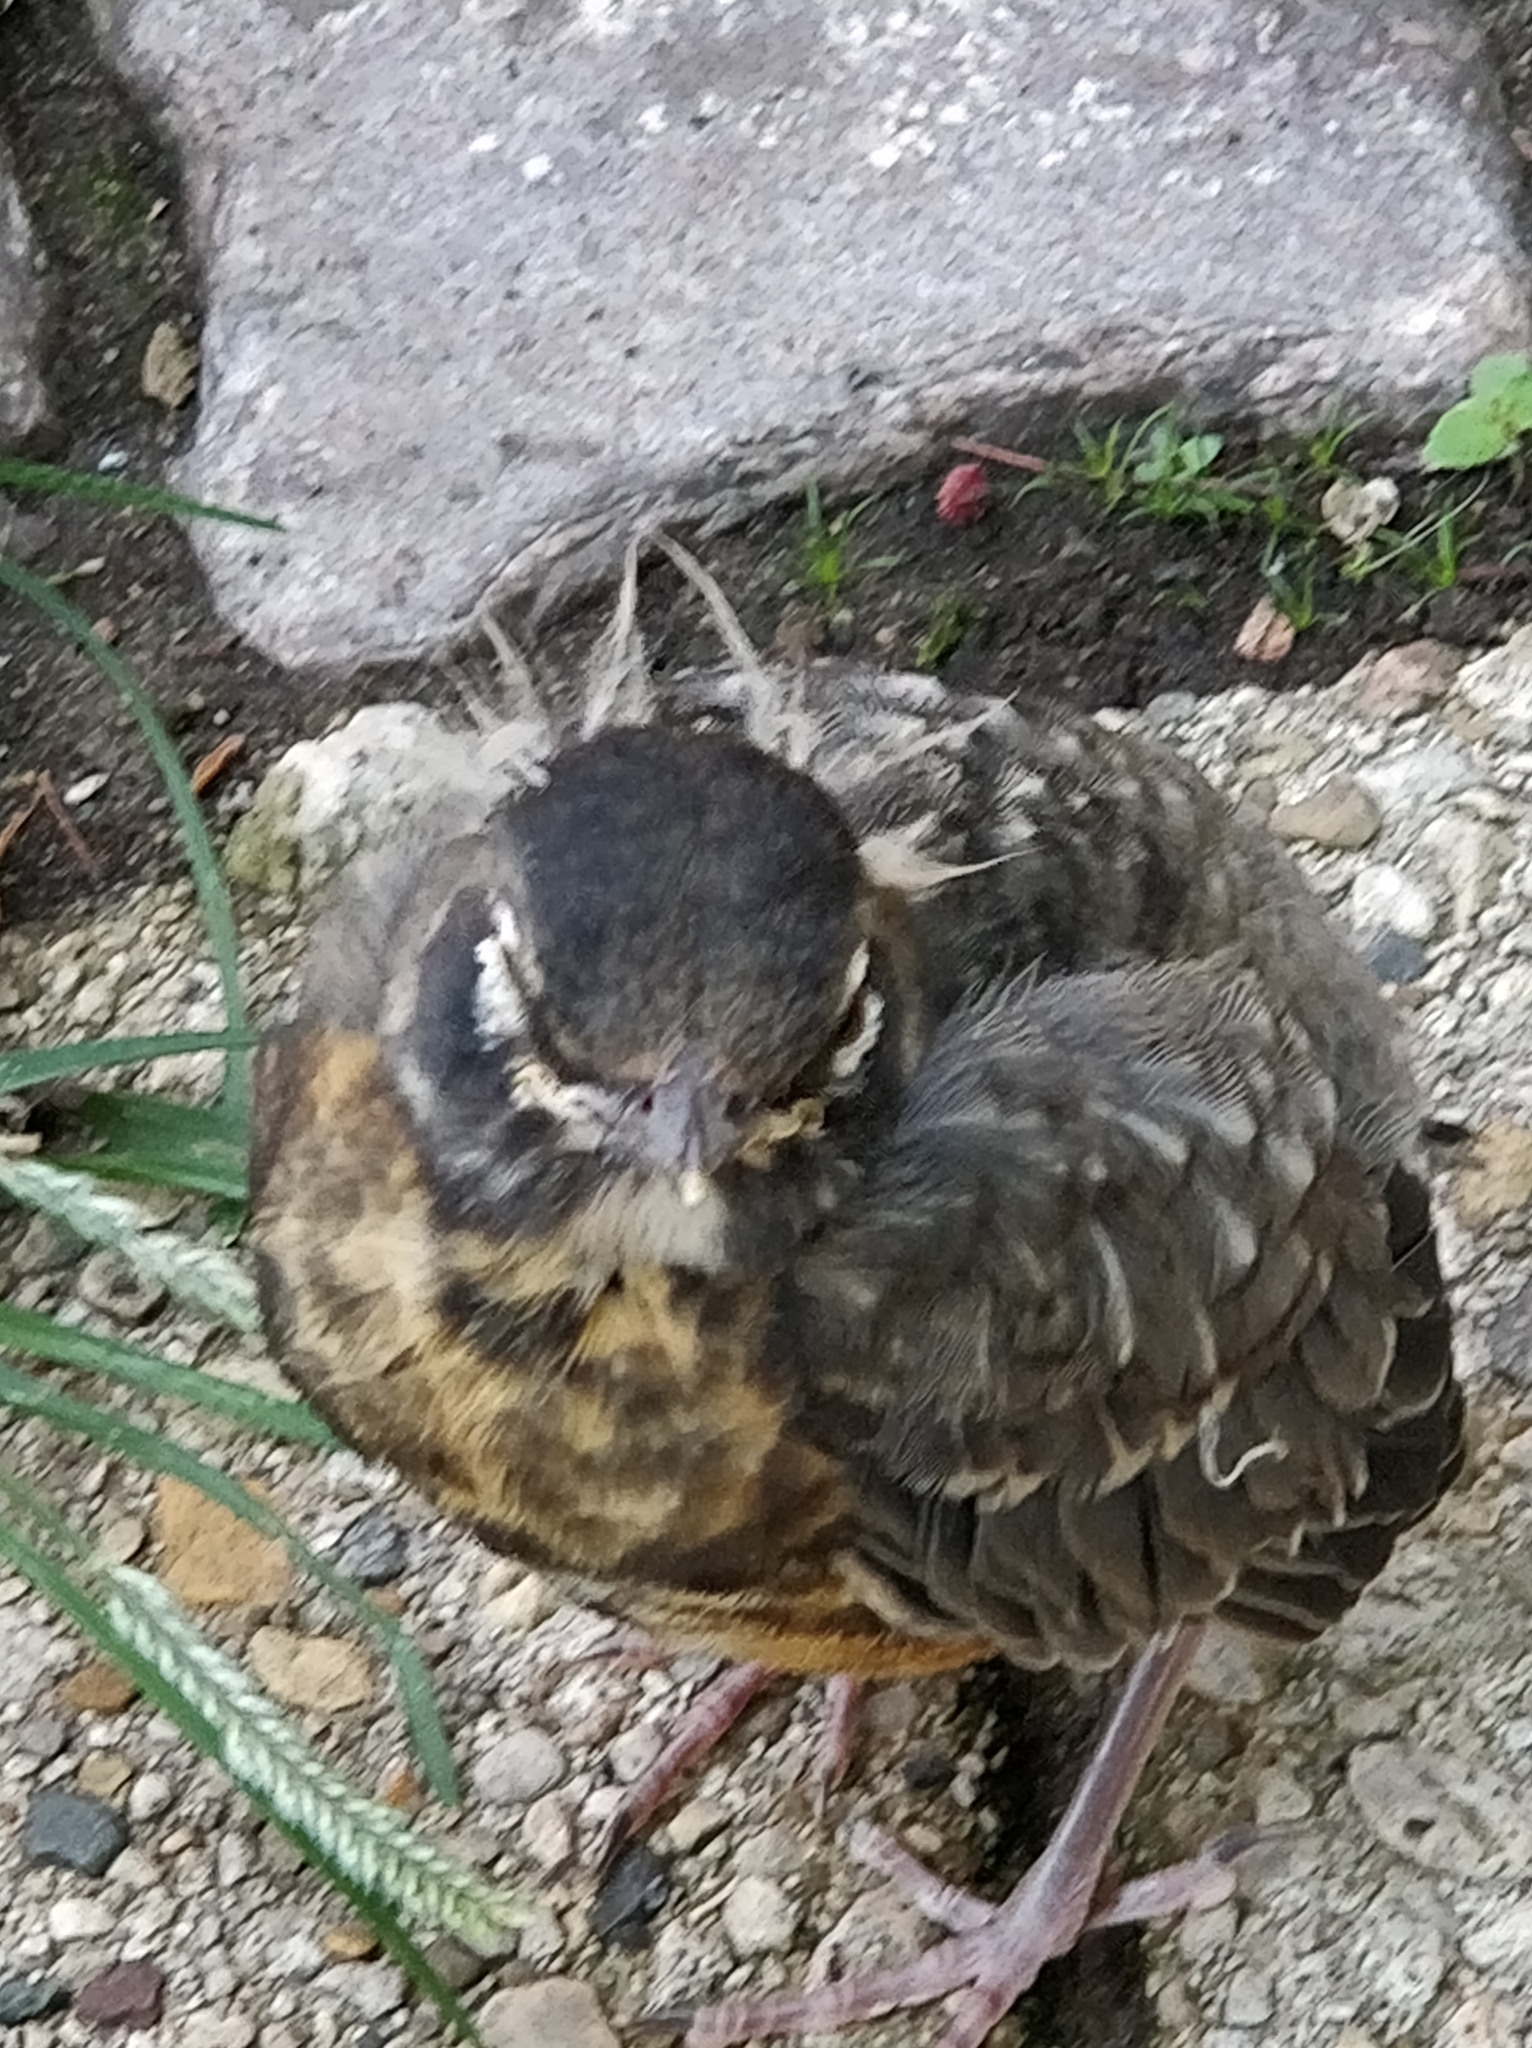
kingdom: Animalia
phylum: Chordata
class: Aves
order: Passeriformes
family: Turdidae
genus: Turdus
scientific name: Turdus migratorius
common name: American robin
